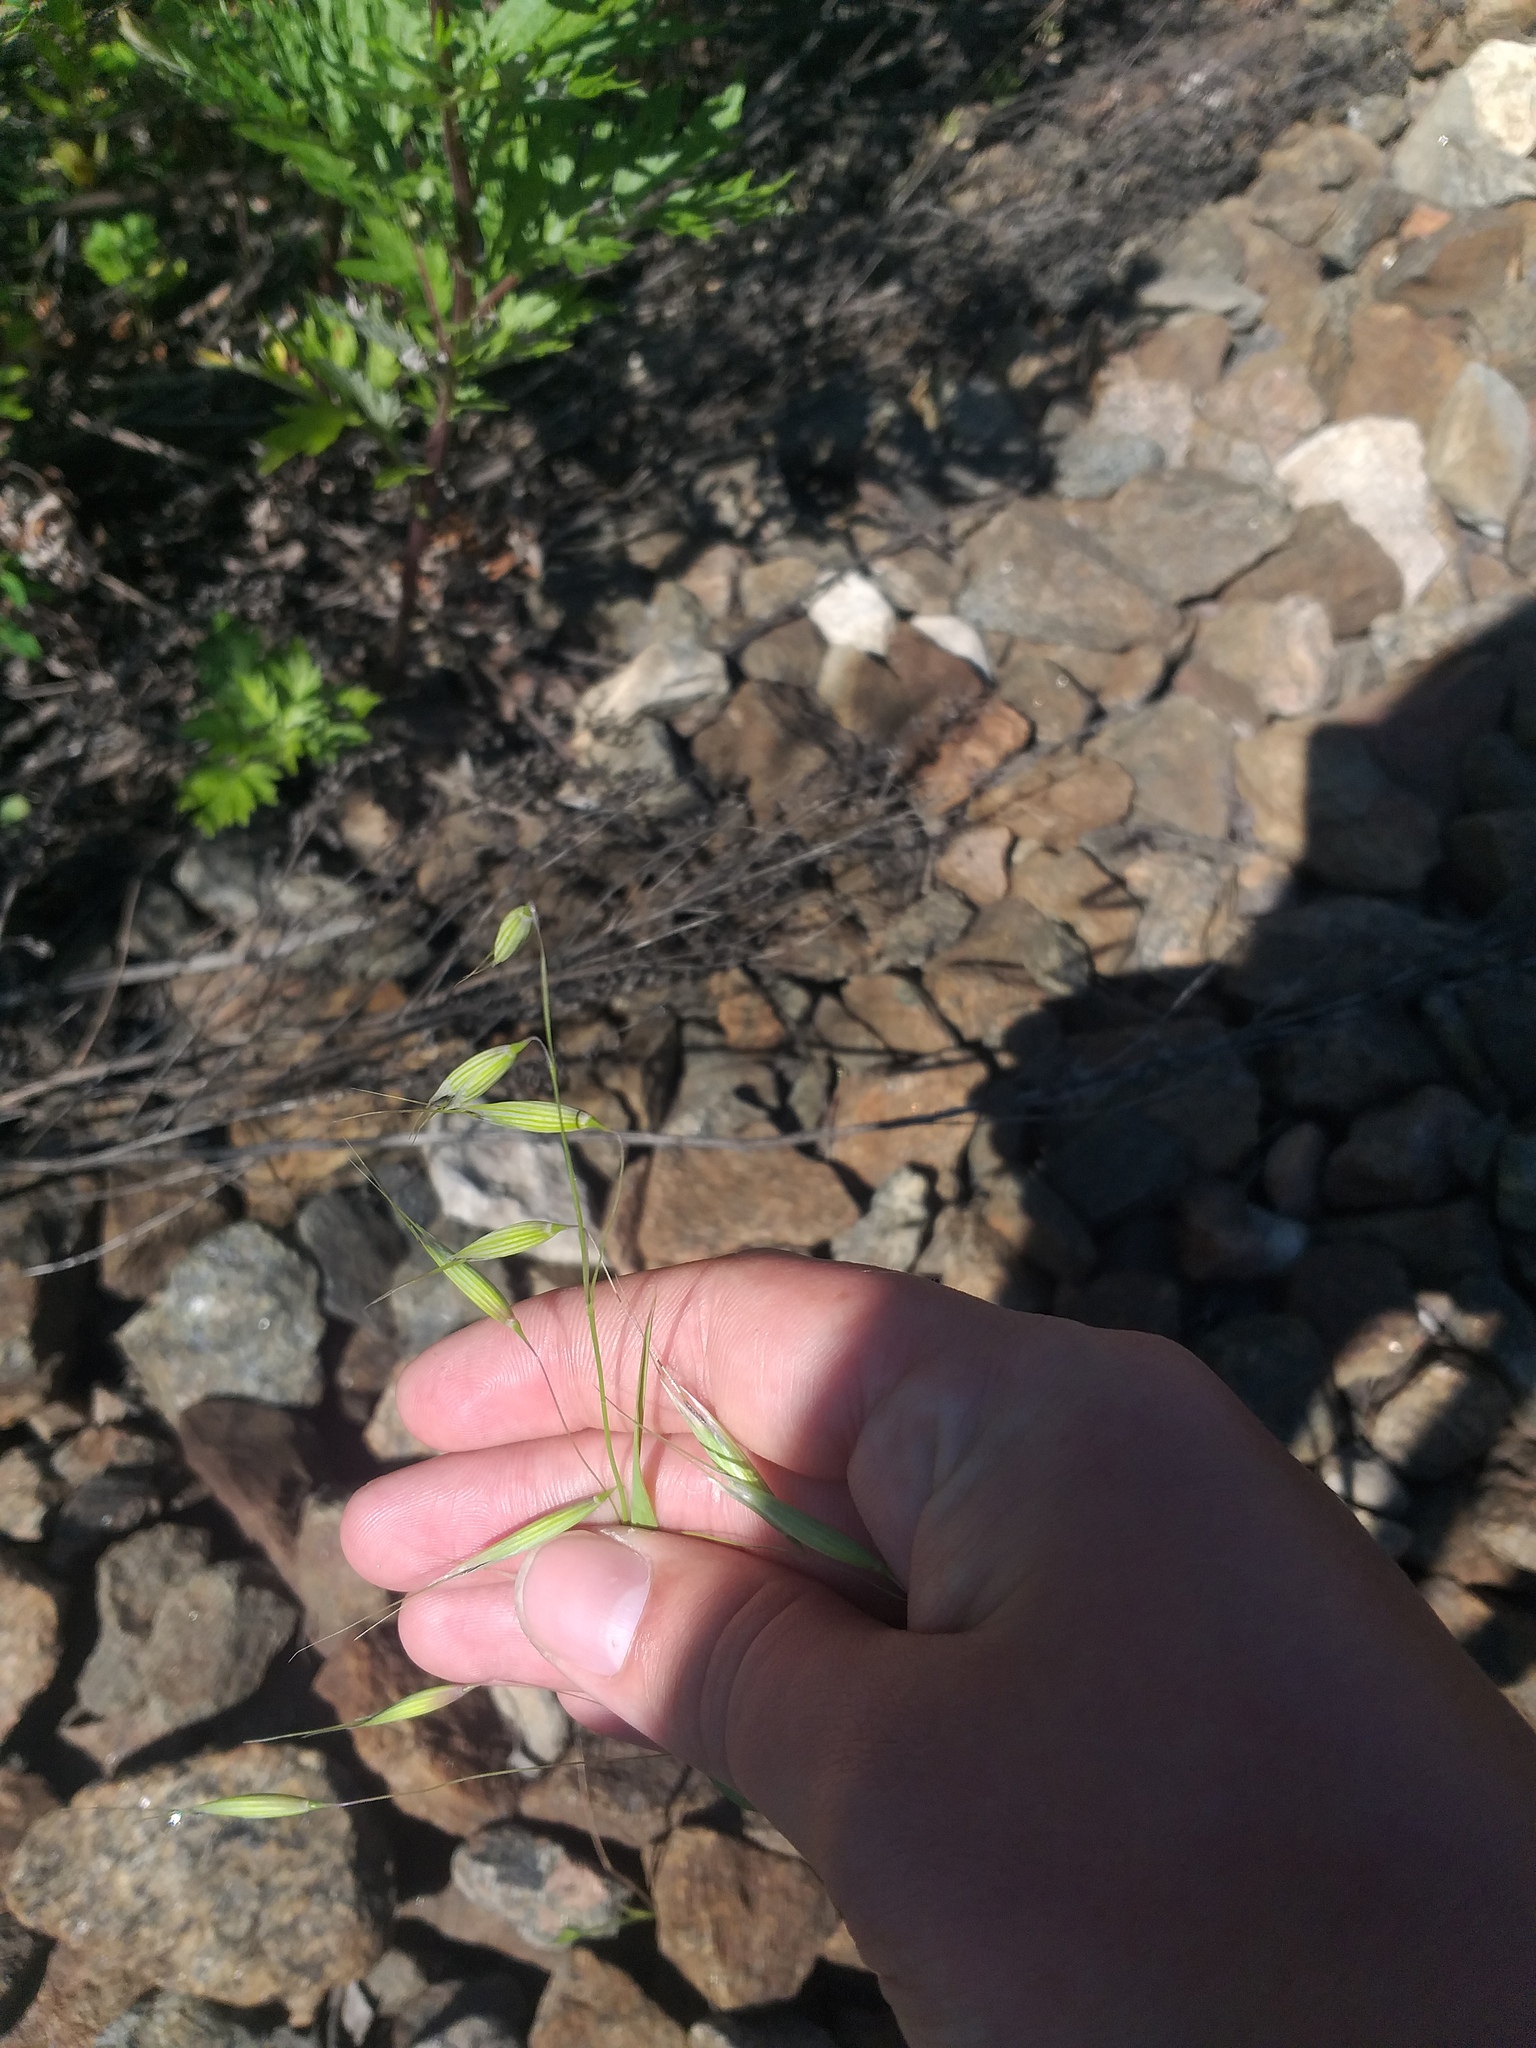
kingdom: Plantae
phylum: Tracheophyta
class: Liliopsida
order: Poales
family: Poaceae
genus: Avena
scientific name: Avena fatua
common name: Wild oat
